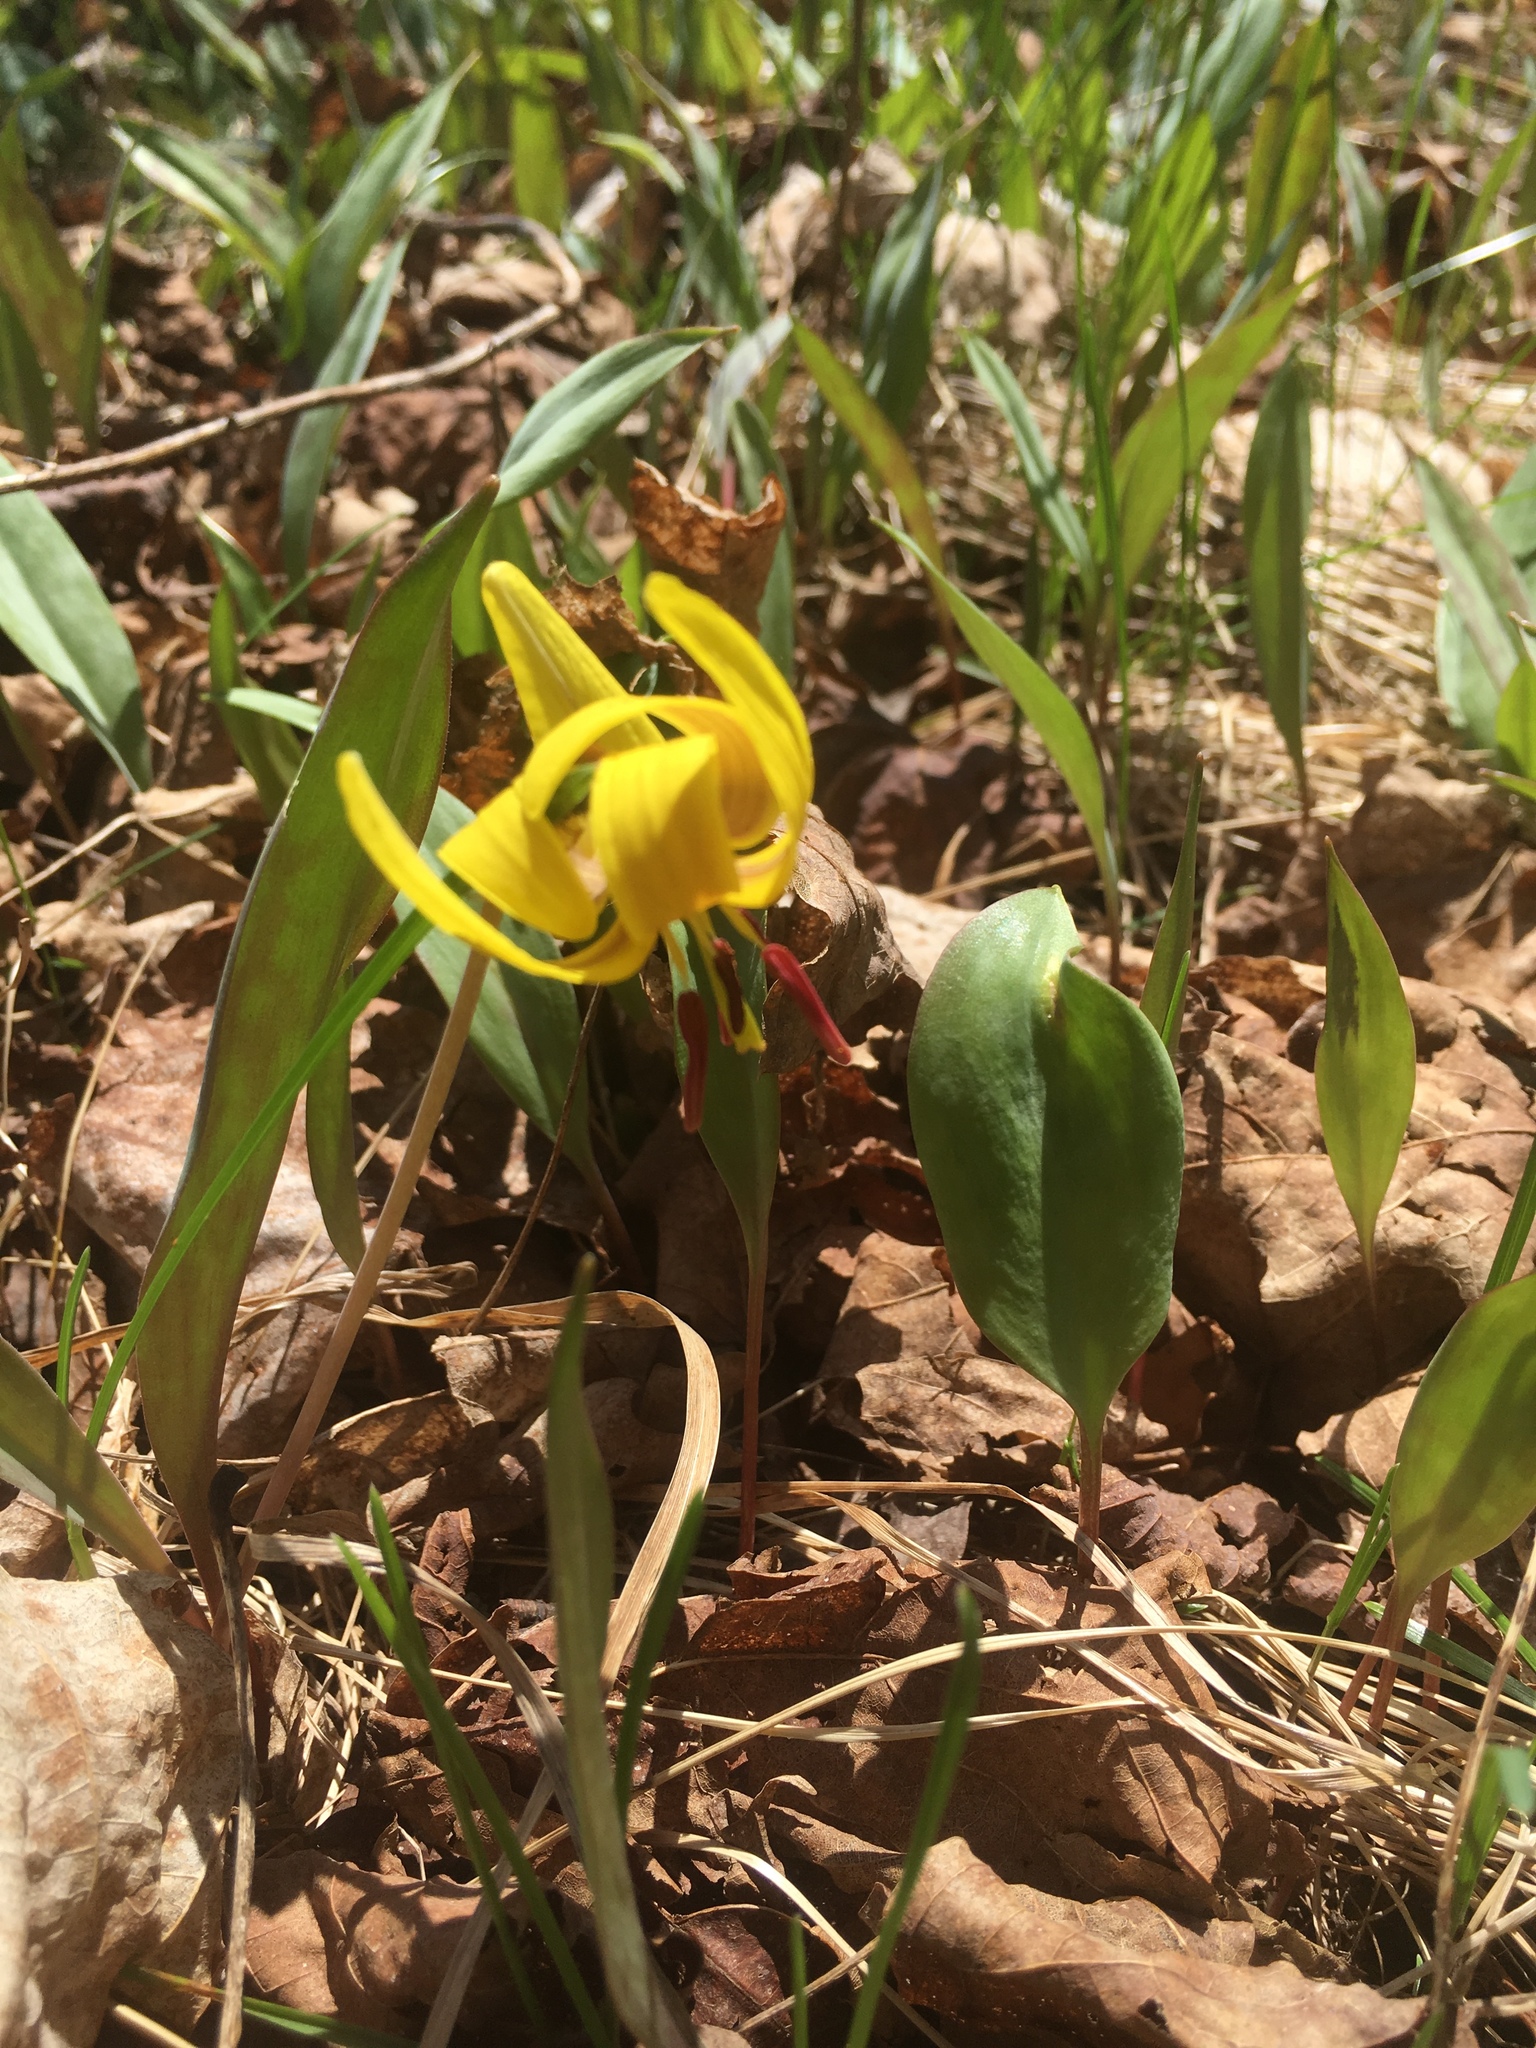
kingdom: Plantae
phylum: Tracheophyta
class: Liliopsida
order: Liliales
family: Liliaceae
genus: Erythronium
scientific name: Erythronium americanum
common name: Yellow adder's-tongue
